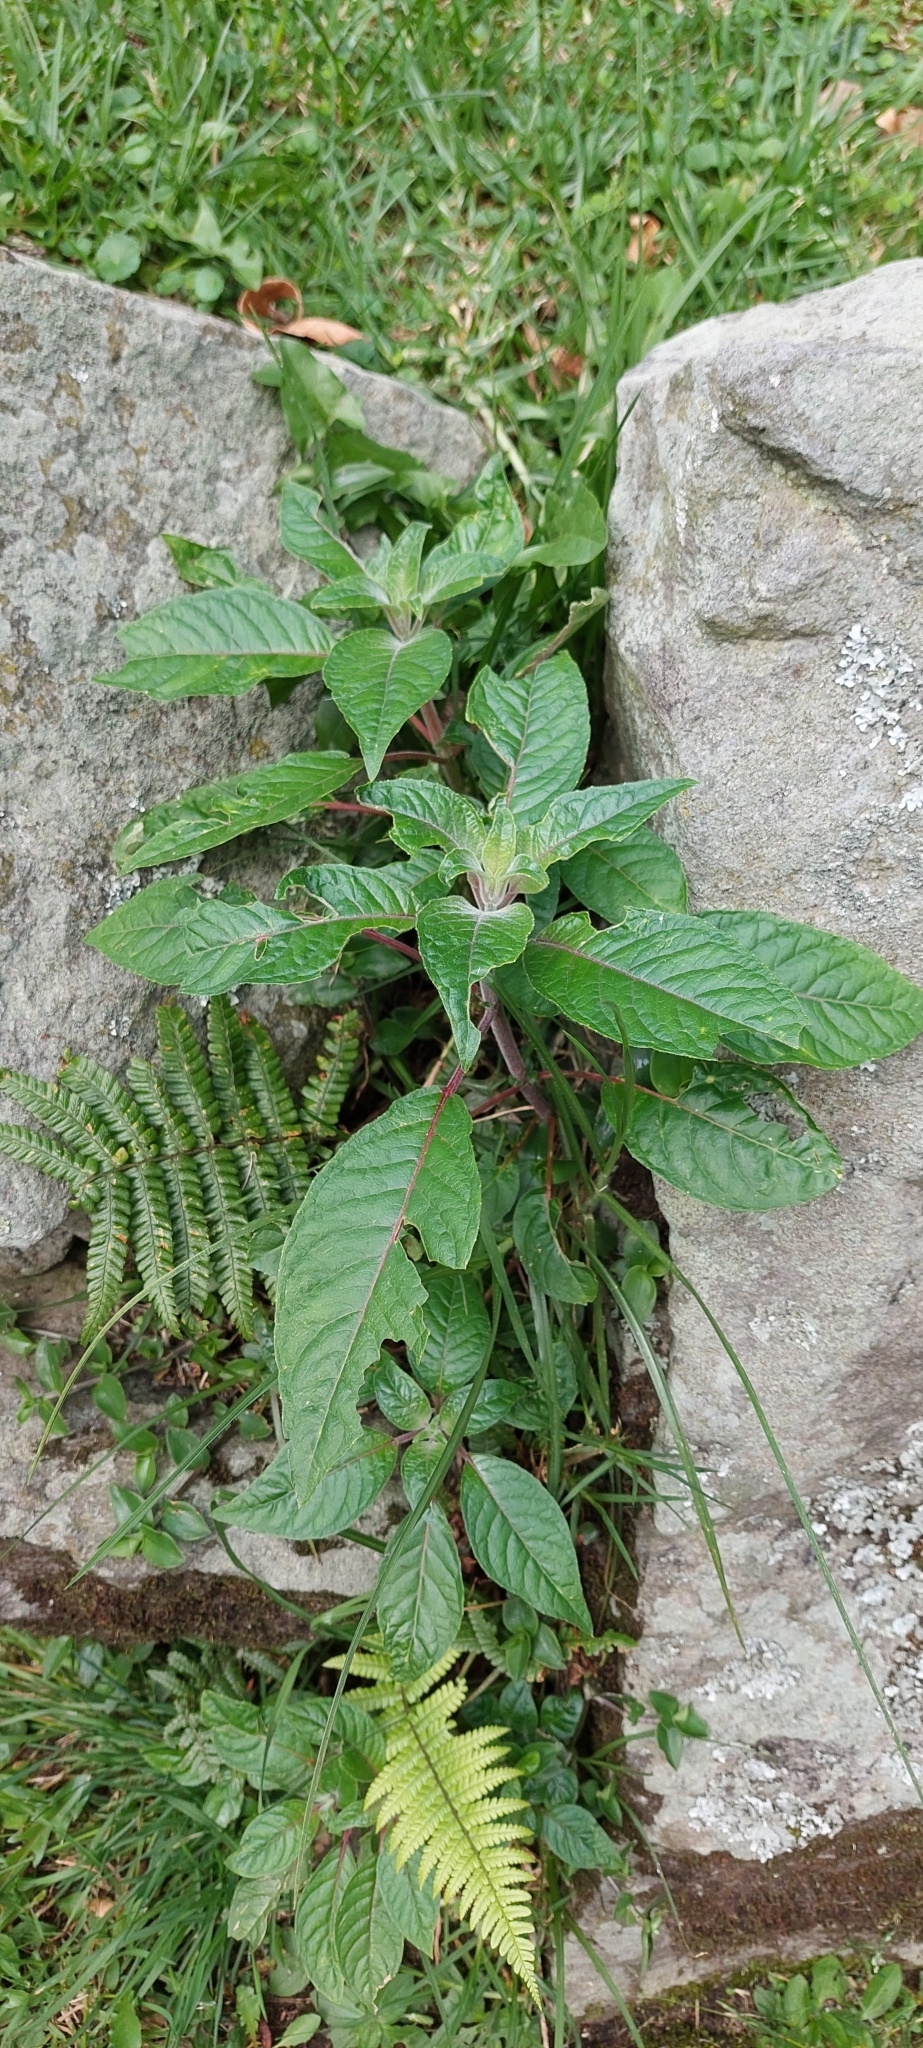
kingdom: Plantae
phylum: Tracheophyta
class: Magnoliopsida
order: Myrtales
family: Onagraceae
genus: Fuchsia
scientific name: Fuchsia boliviana
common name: Bolivian fuchsia
